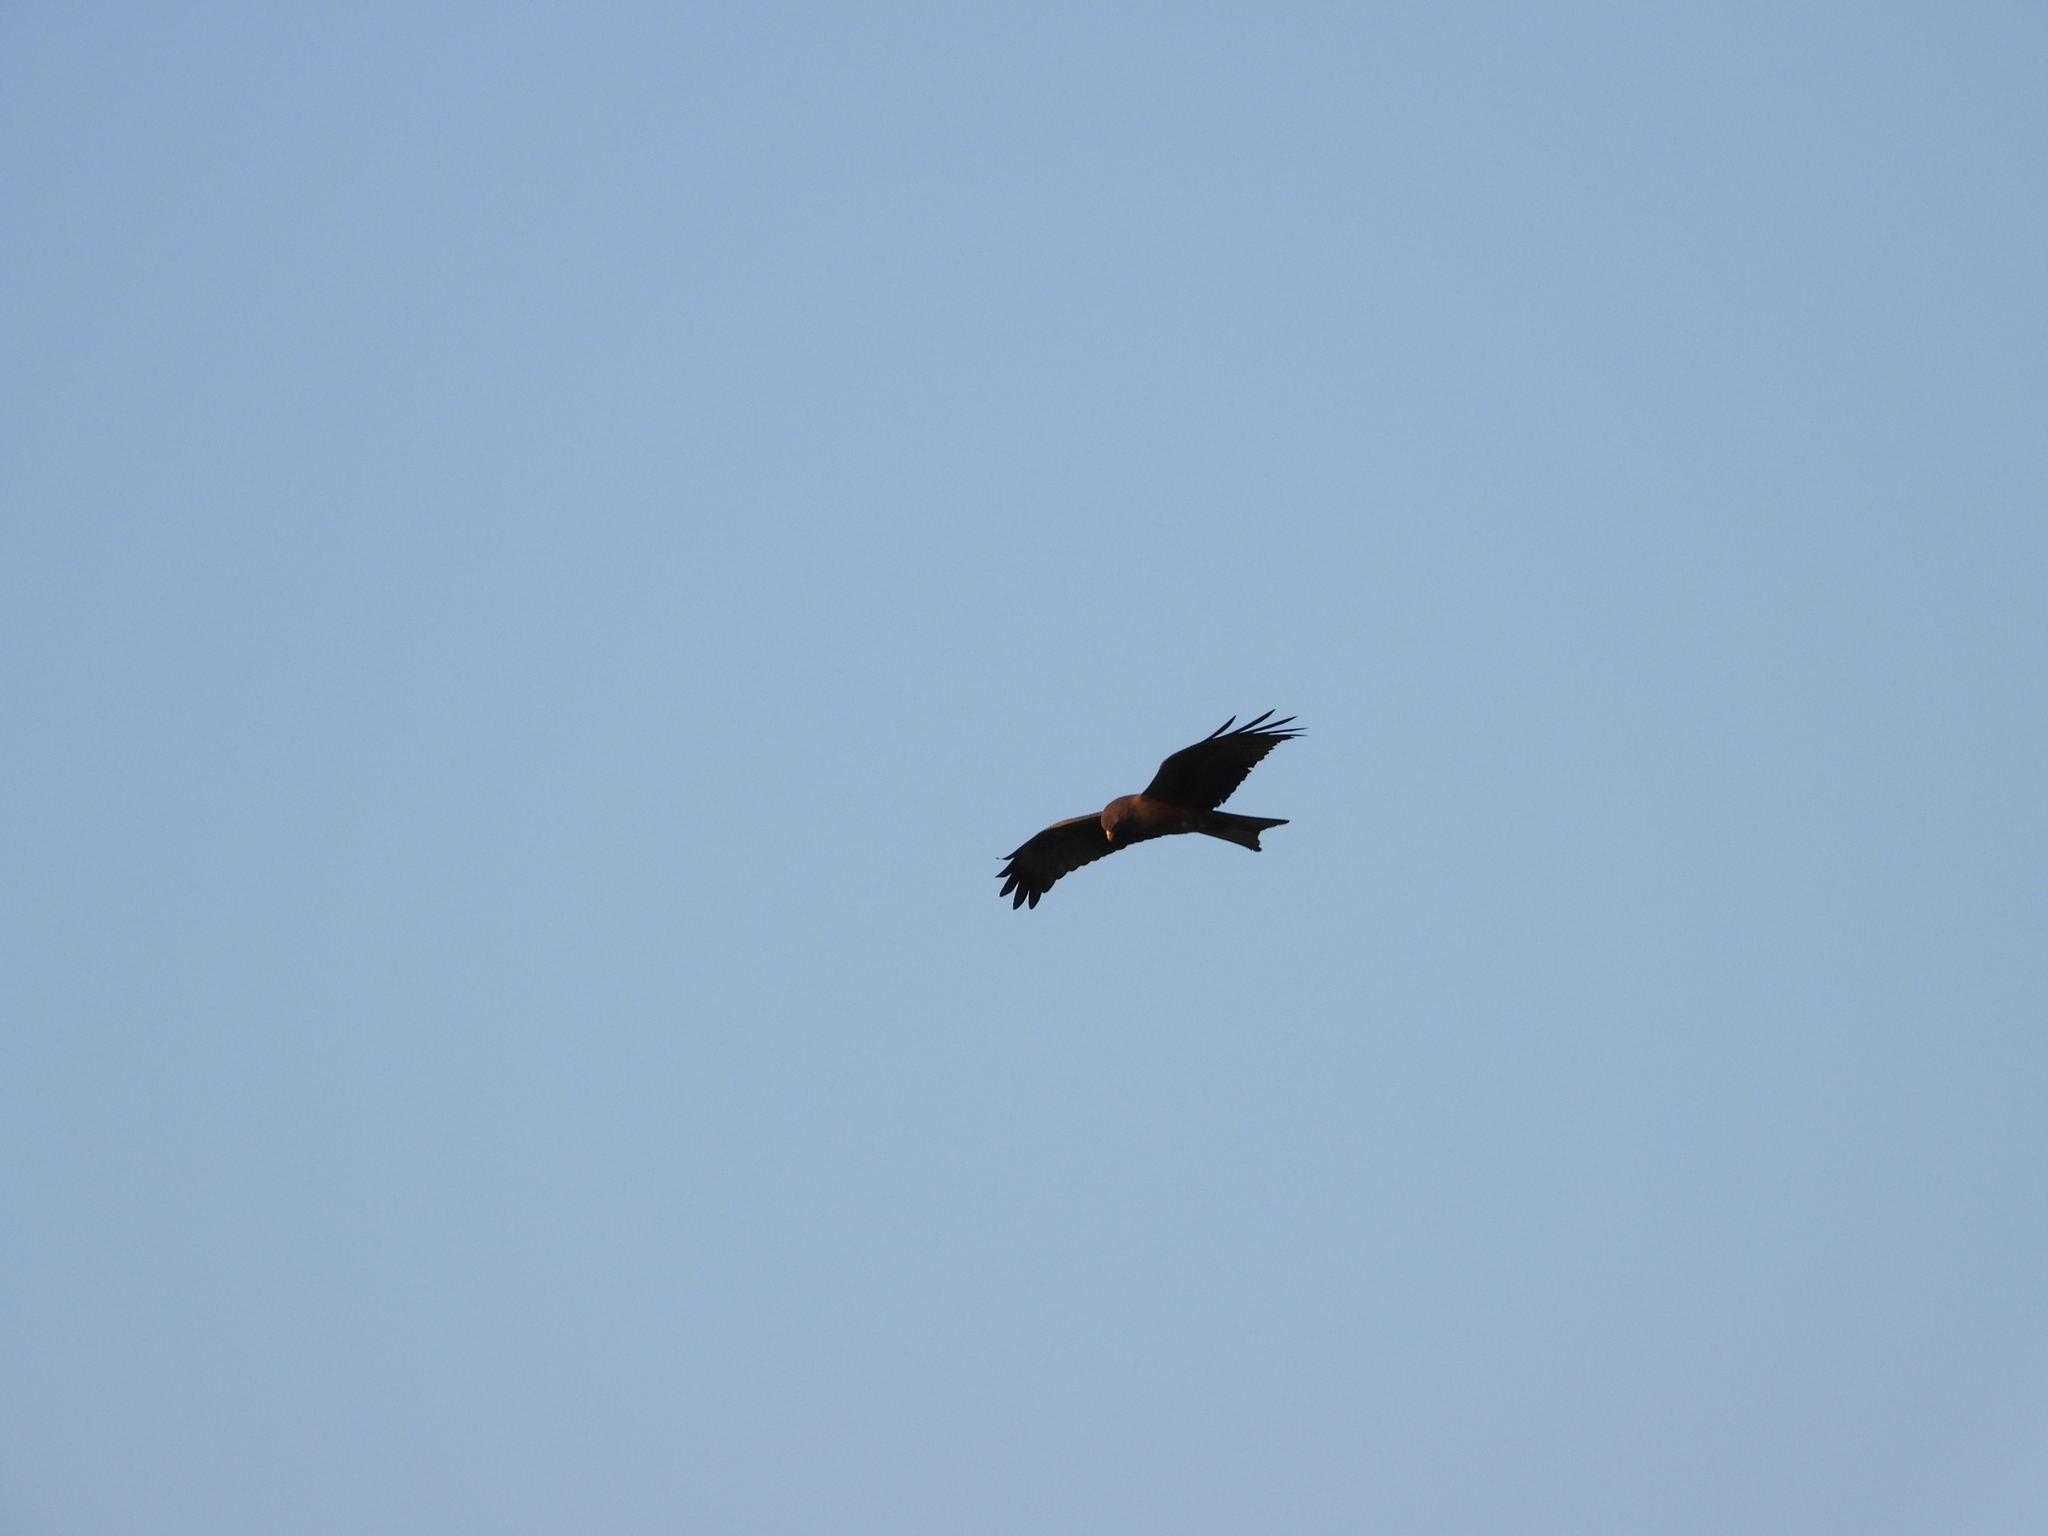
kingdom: Animalia
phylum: Chordata
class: Aves
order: Accipitriformes
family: Accipitridae
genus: Milvus
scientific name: Milvus migrans
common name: Black kite
